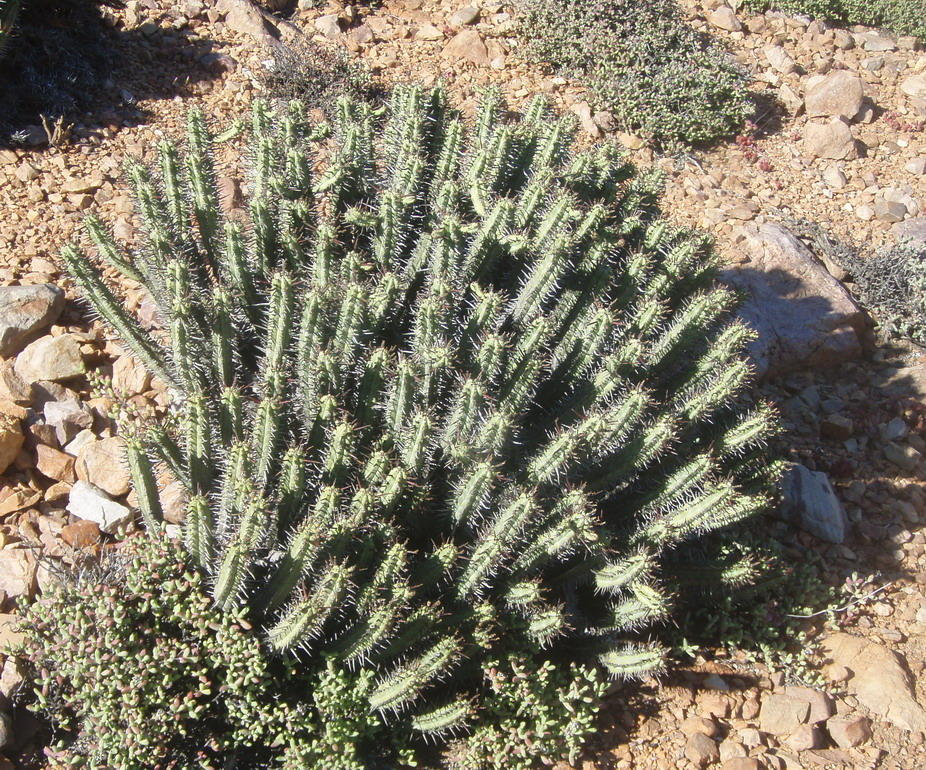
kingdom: Plantae
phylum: Tracheophyta
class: Magnoliopsida
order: Malpighiales
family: Euphorbiaceae
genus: Euphorbia
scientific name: Euphorbia heptagona
